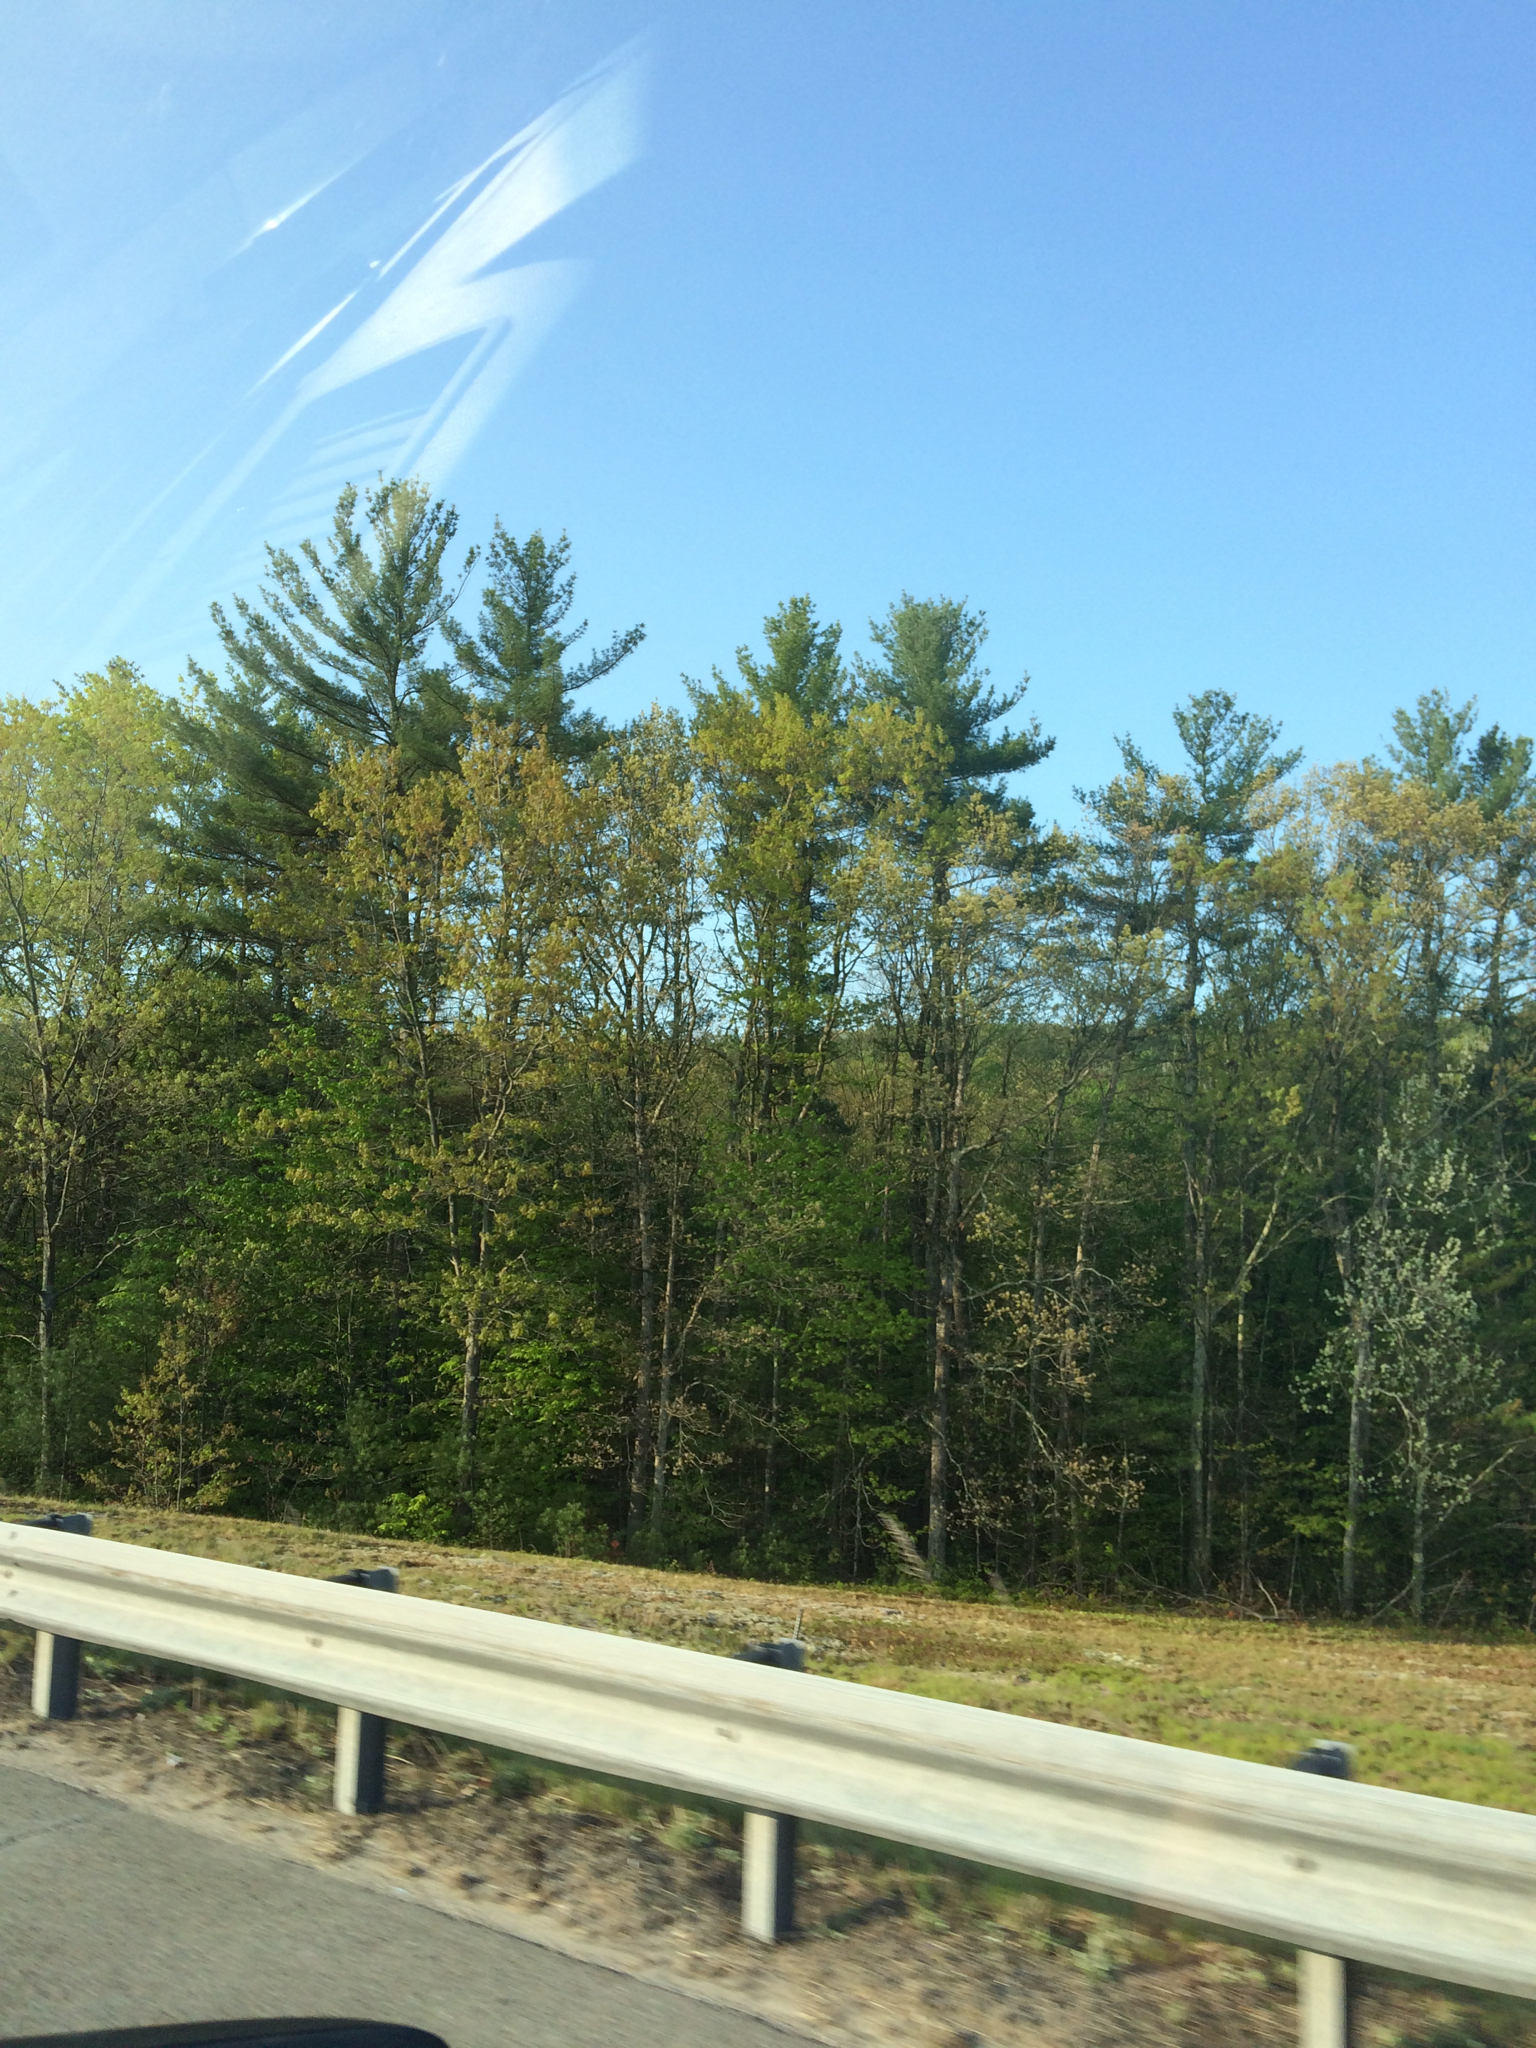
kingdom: Plantae
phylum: Tracheophyta
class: Pinopsida
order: Pinales
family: Pinaceae
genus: Pinus
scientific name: Pinus strobus
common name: Weymouth pine
